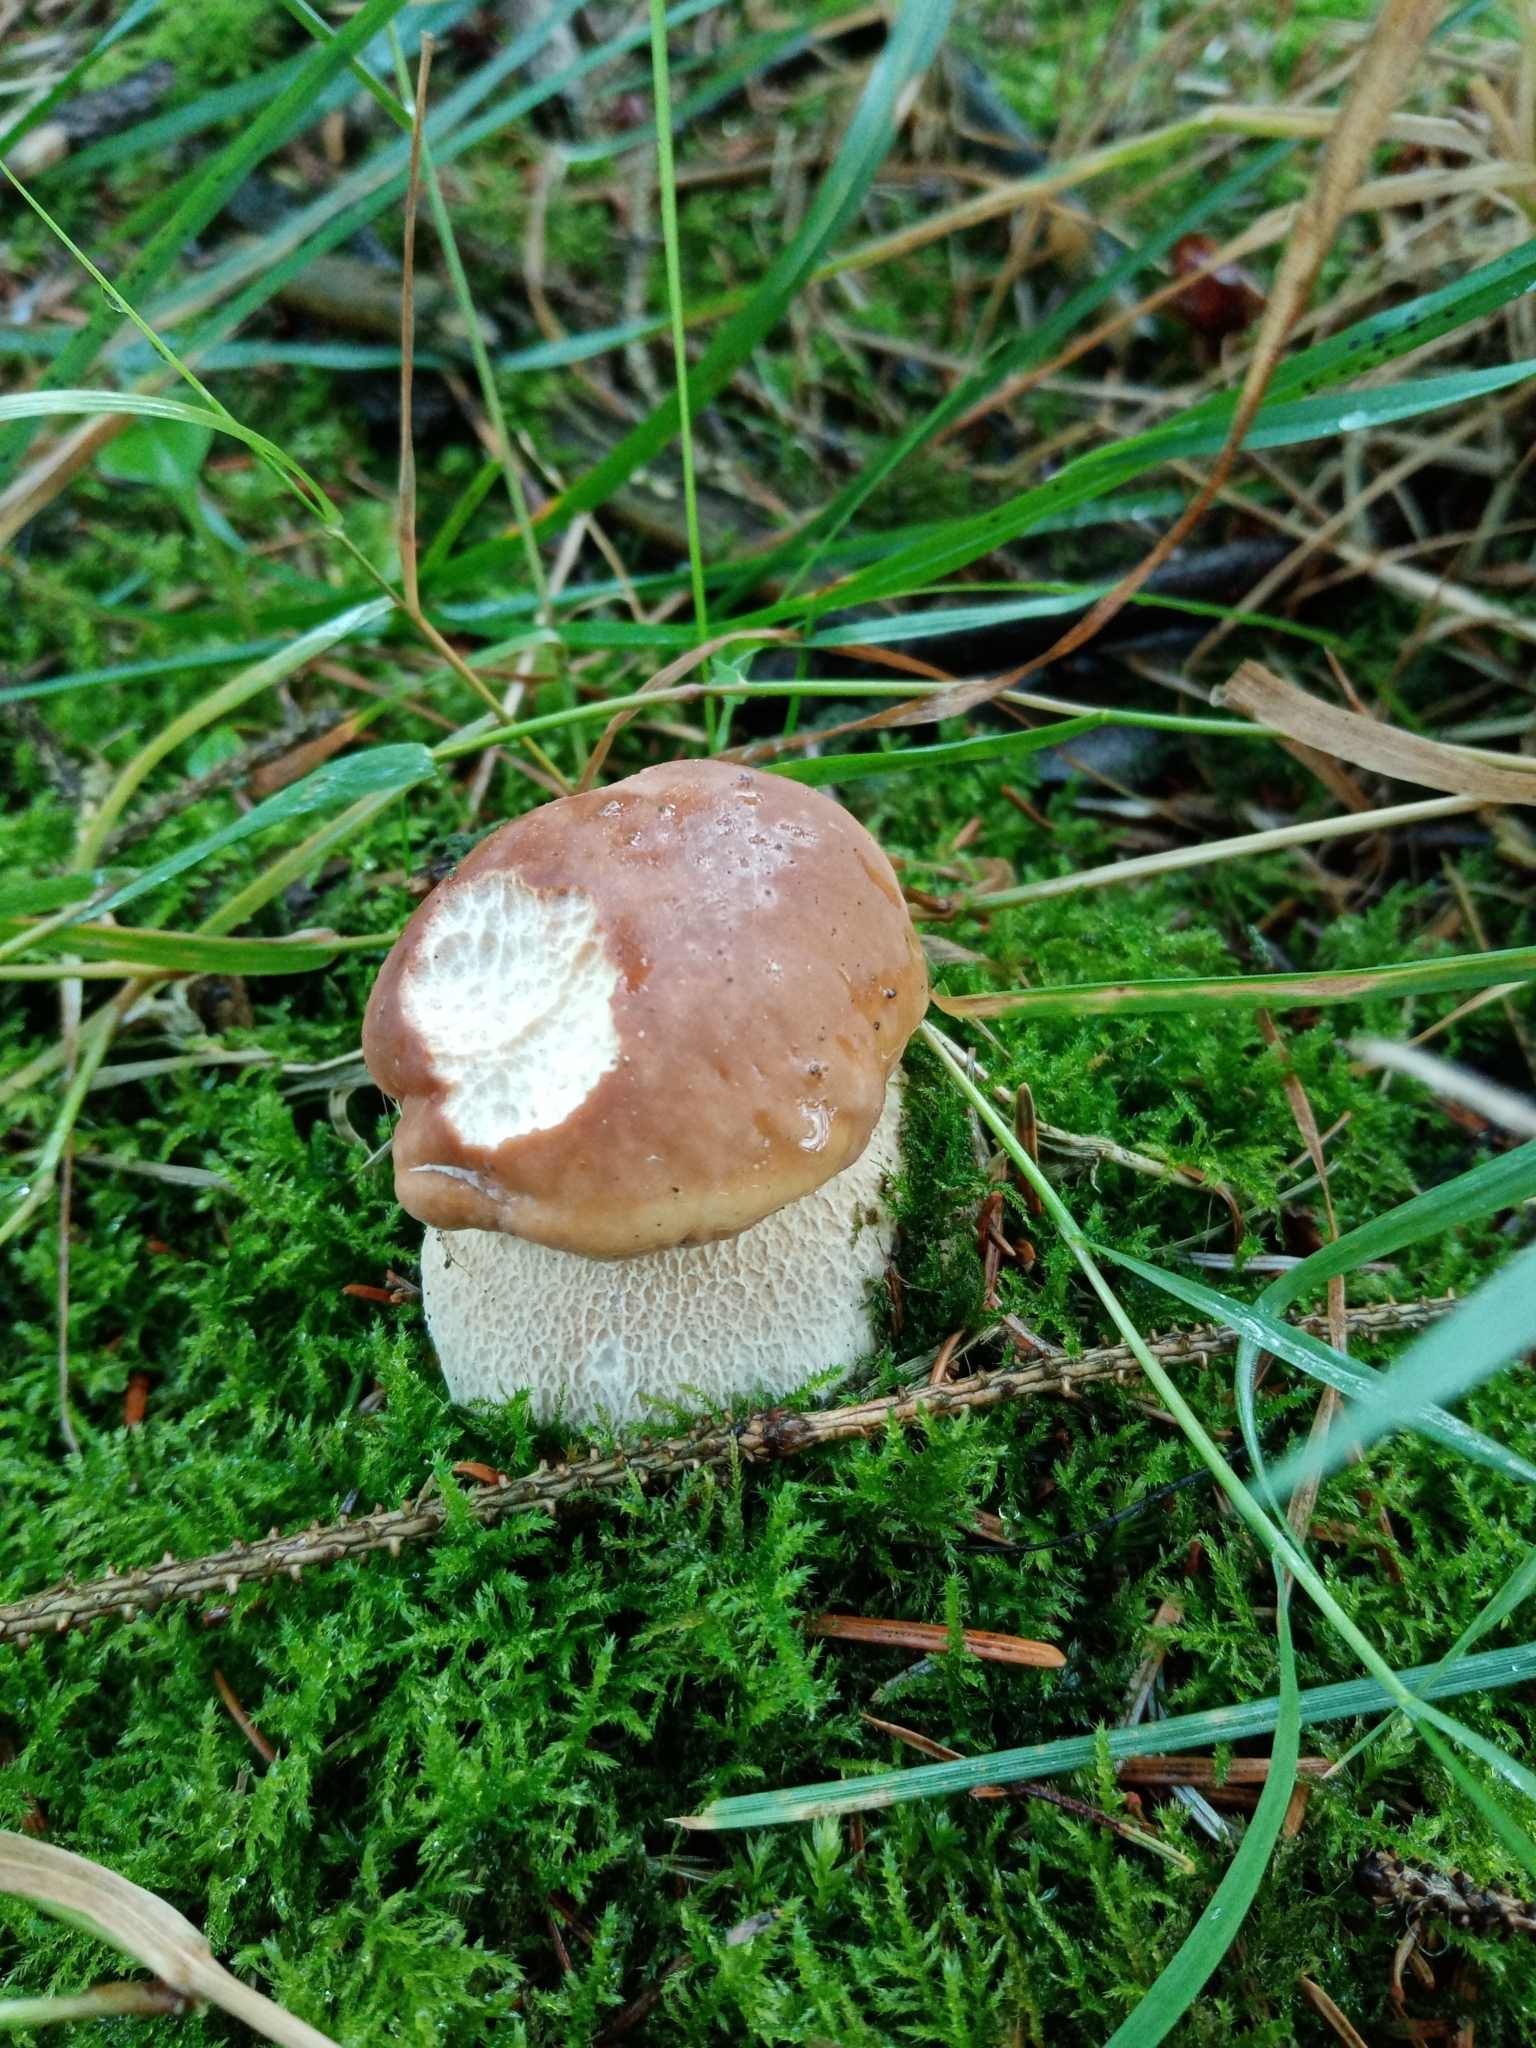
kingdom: Fungi
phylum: Basidiomycota
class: Agaricomycetes
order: Boletales
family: Boletaceae
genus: Boletus
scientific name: Boletus edulis
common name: Cep
